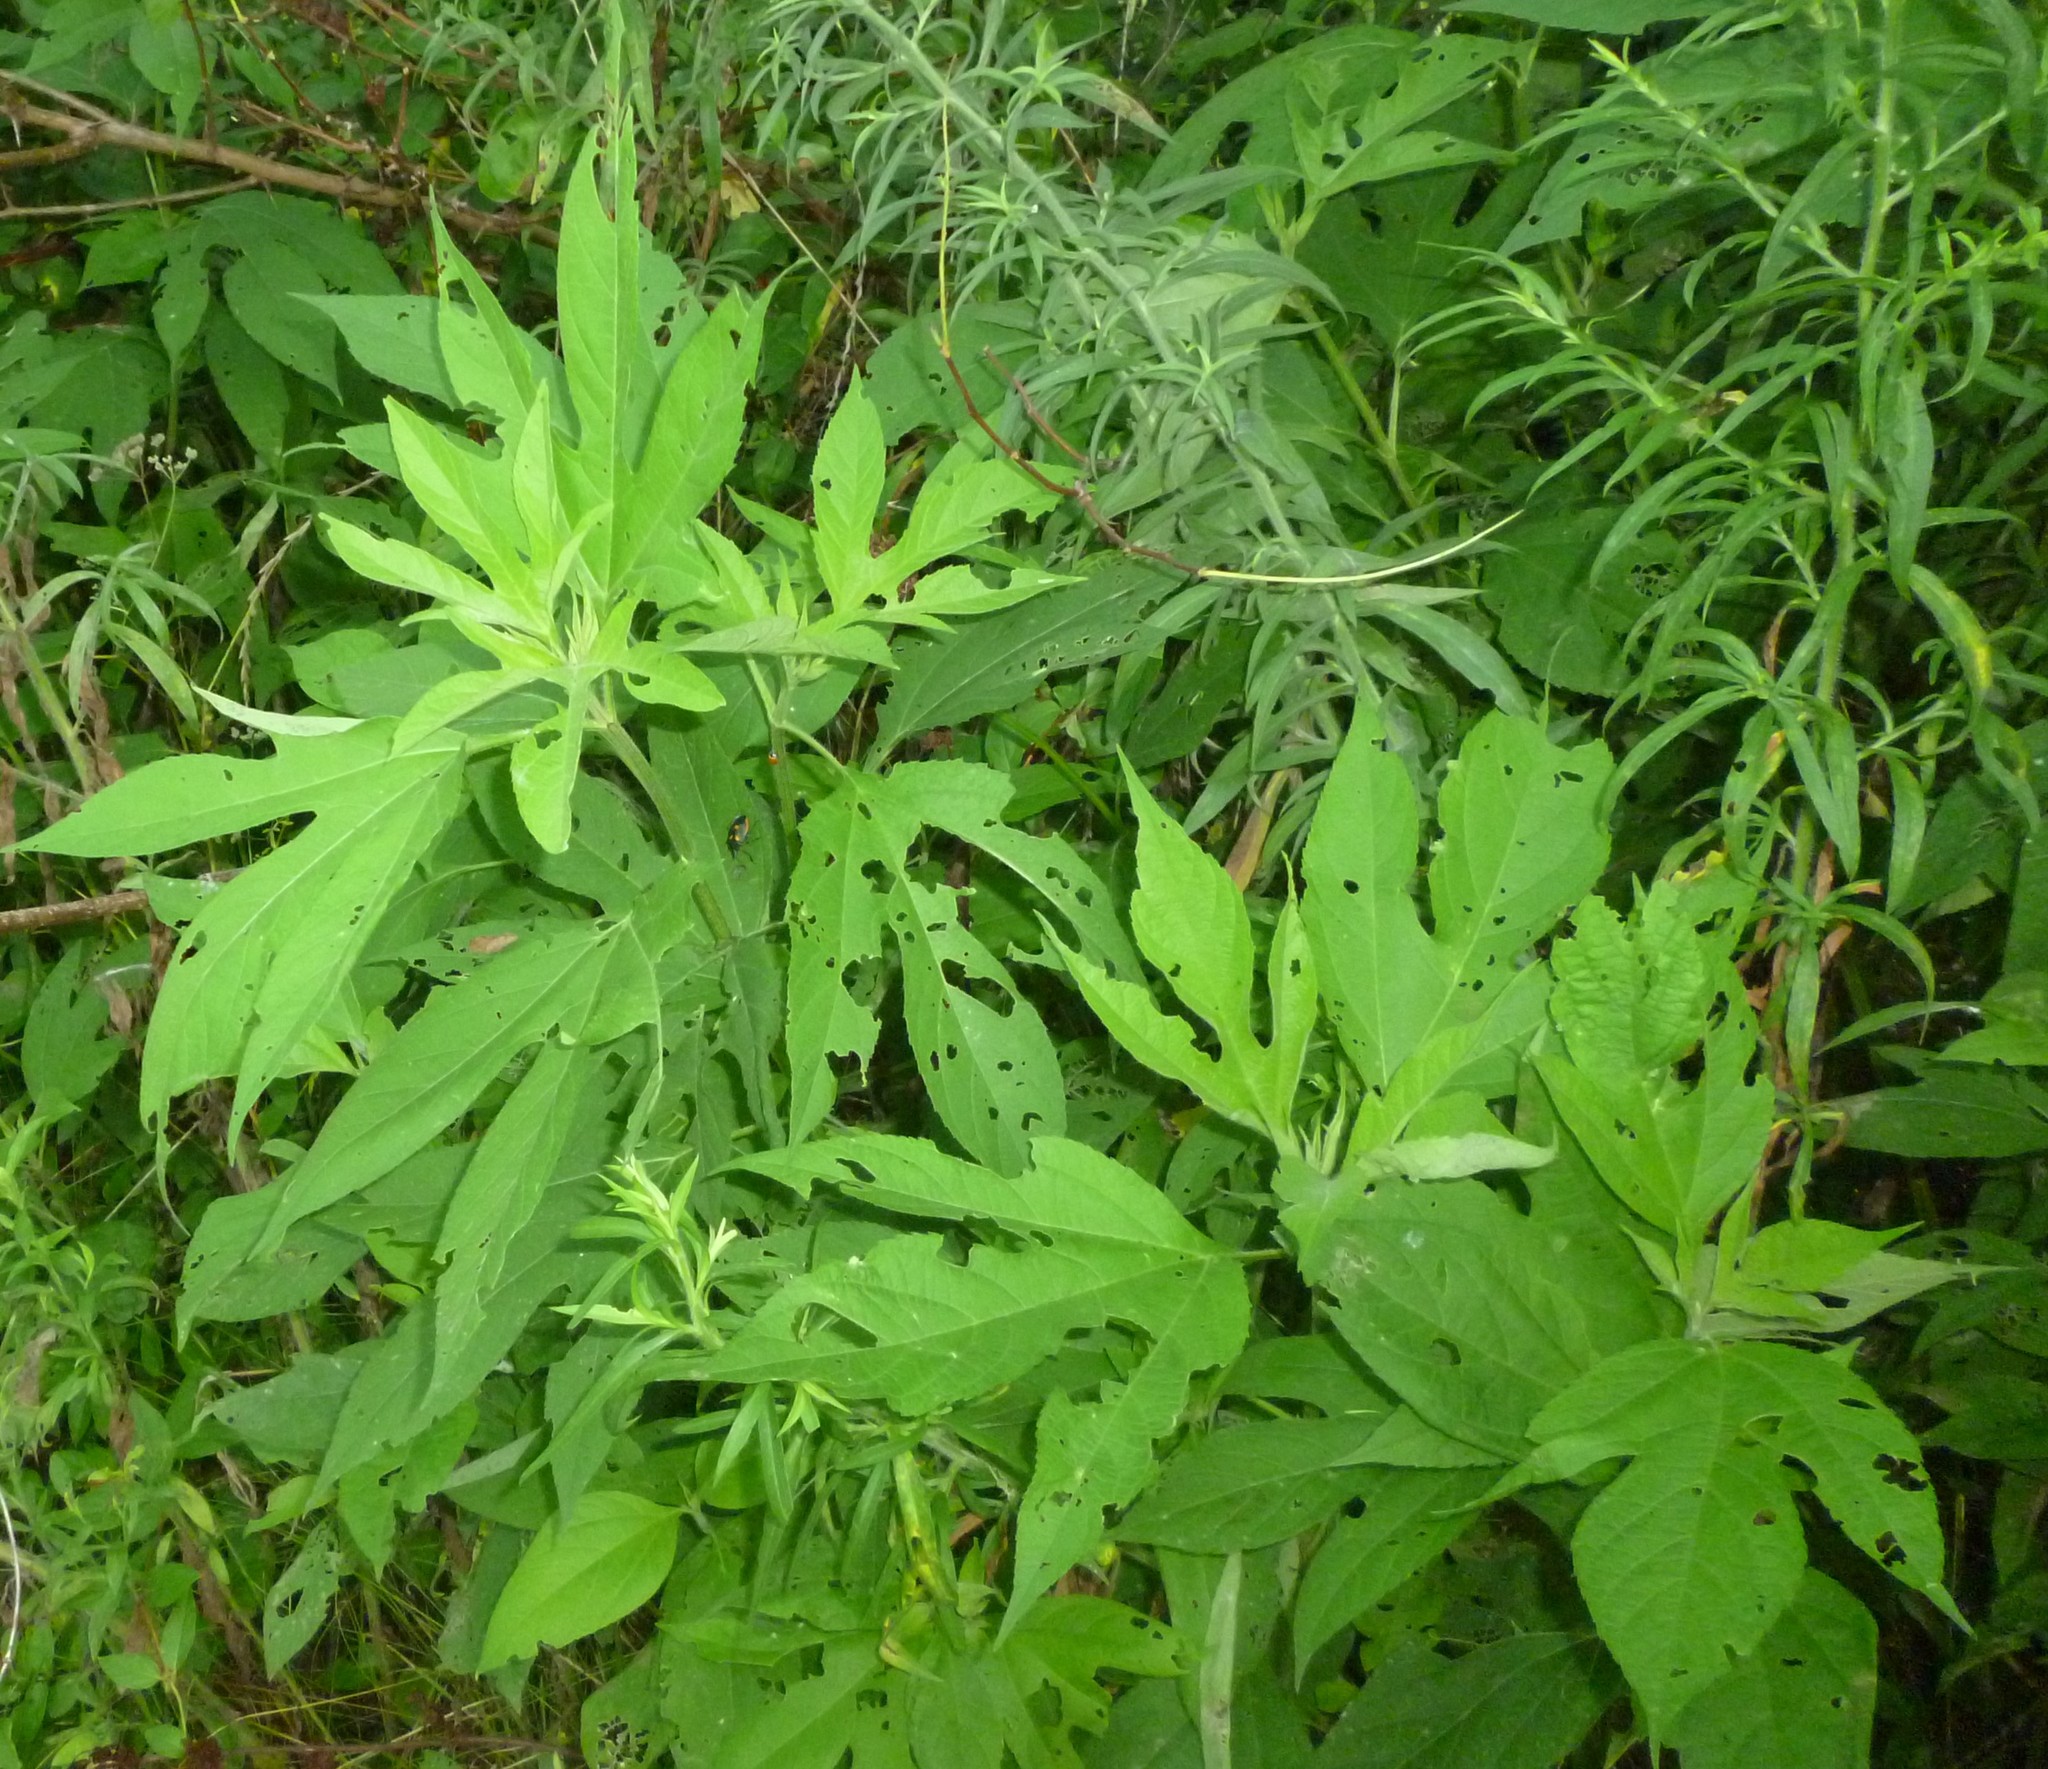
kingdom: Plantae
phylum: Tracheophyta
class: Magnoliopsida
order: Asterales
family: Asteraceae
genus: Ambrosia
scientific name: Ambrosia trifida
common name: Giant ragweed
